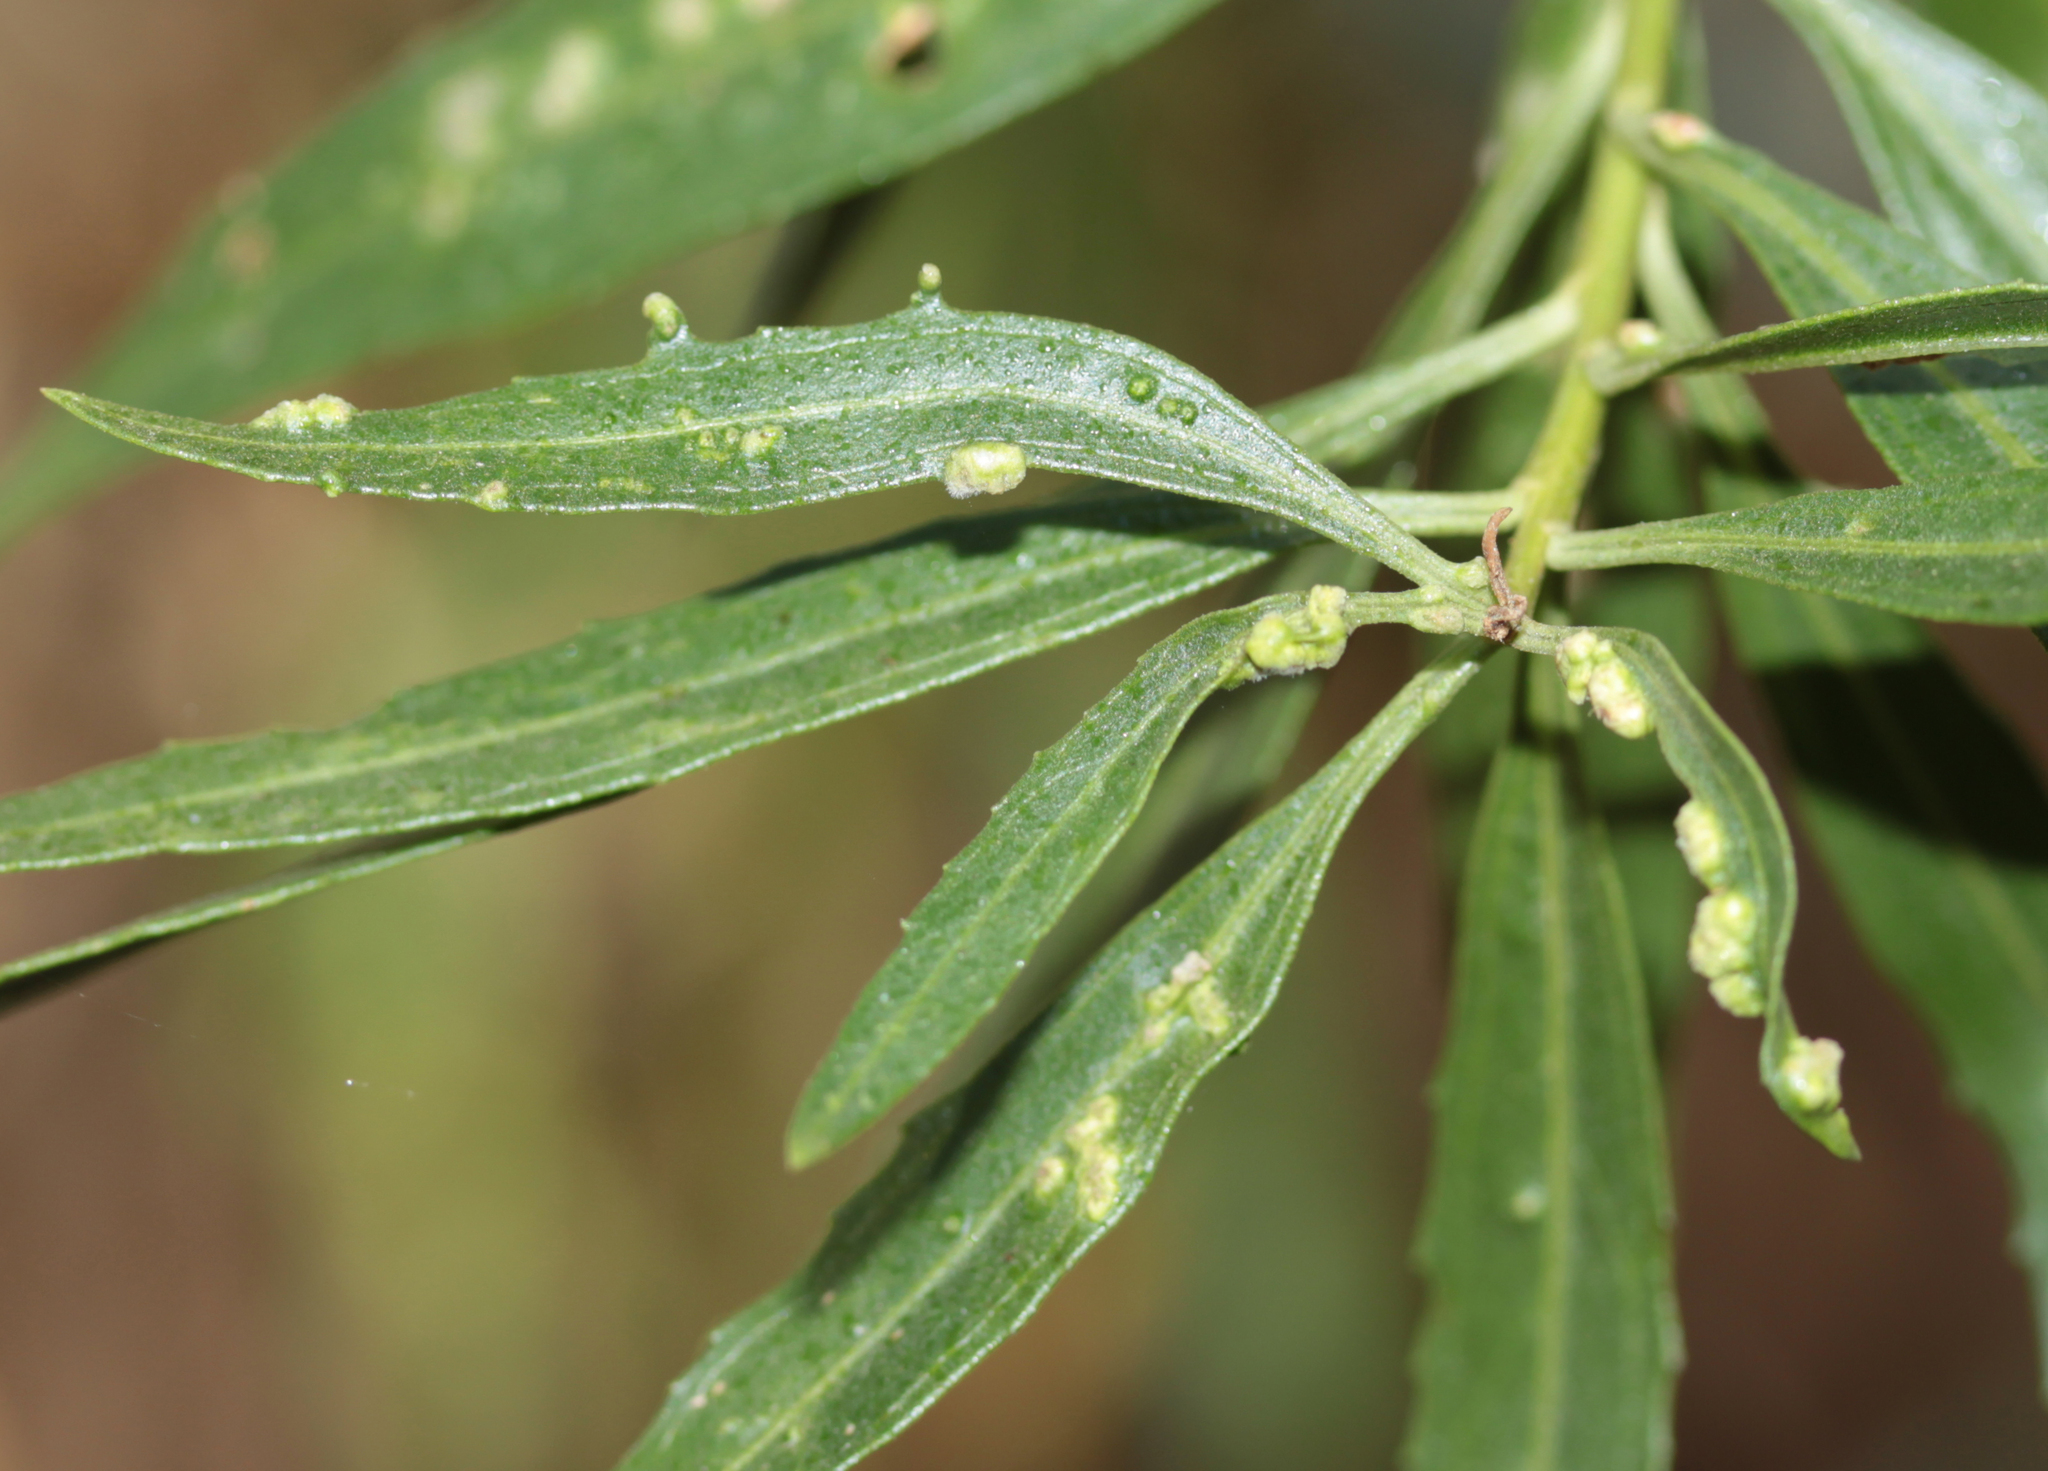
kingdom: Animalia
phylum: Arthropoda
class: Arachnida
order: Trombidiformes
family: Eriophyidae
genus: Aceria
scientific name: Aceria
